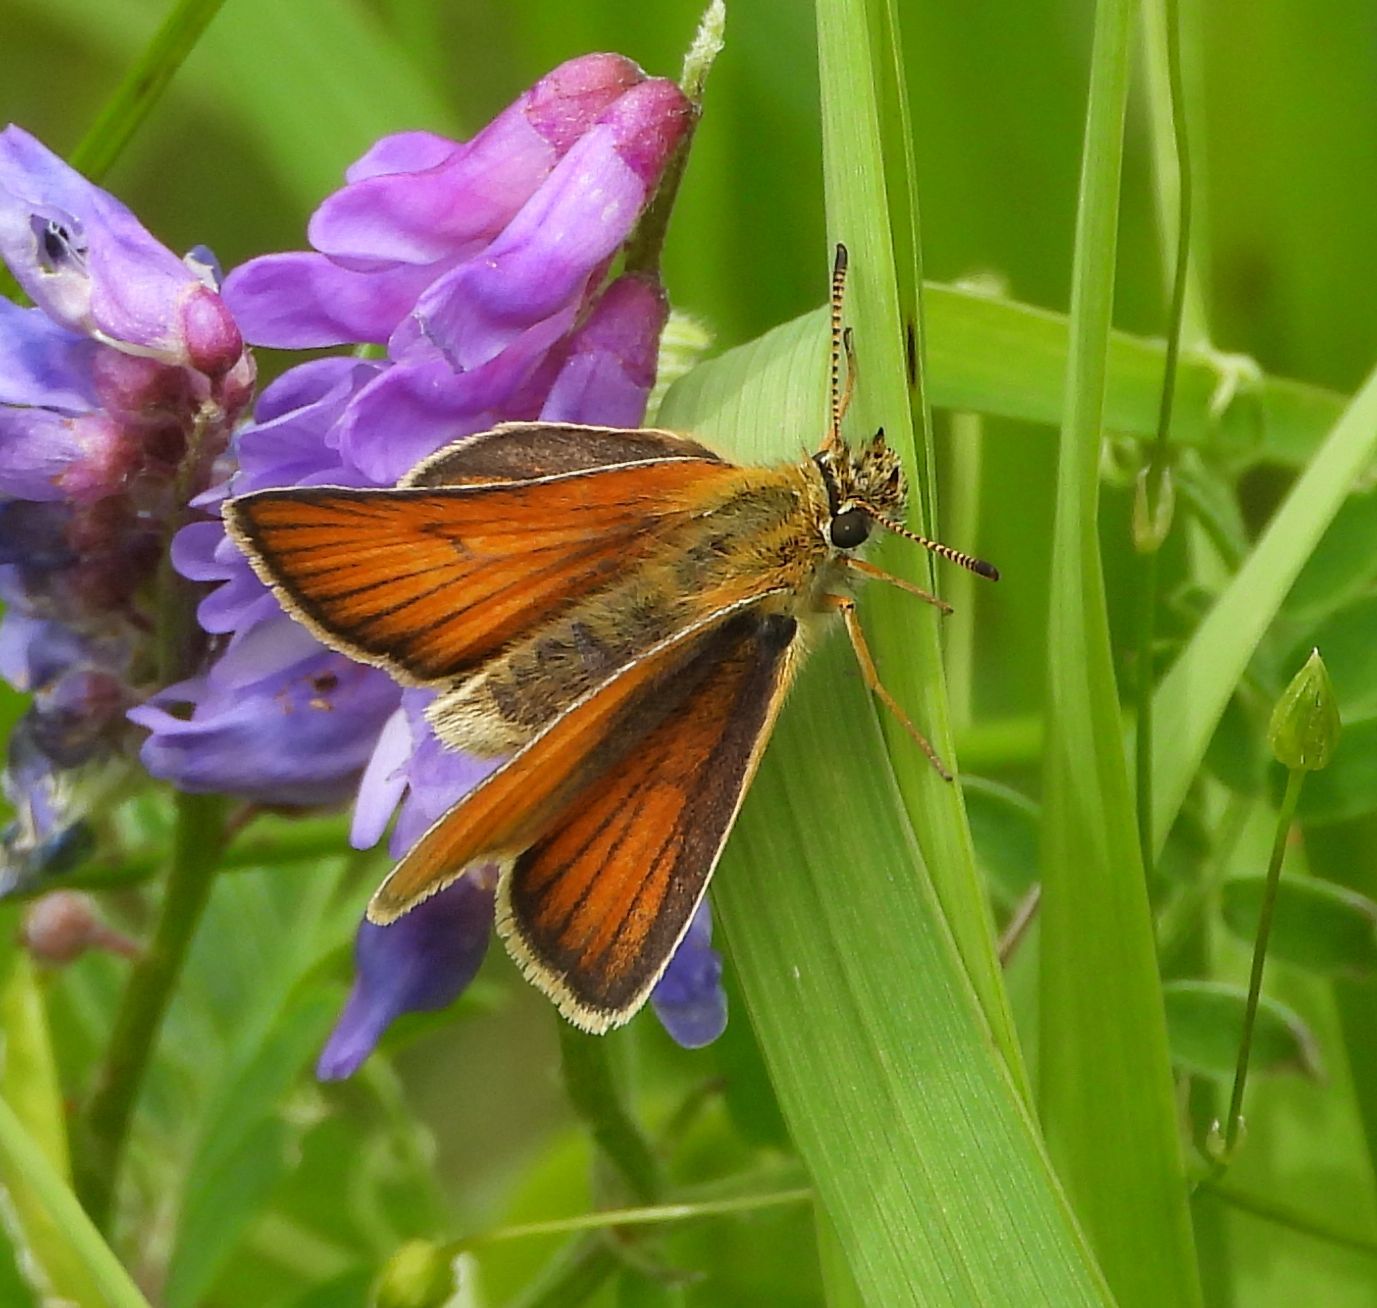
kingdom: Animalia
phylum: Arthropoda
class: Insecta
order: Lepidoptera
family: Hesperiidae
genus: Thymelicus
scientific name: Thymelicus lineola
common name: Essex skipper
